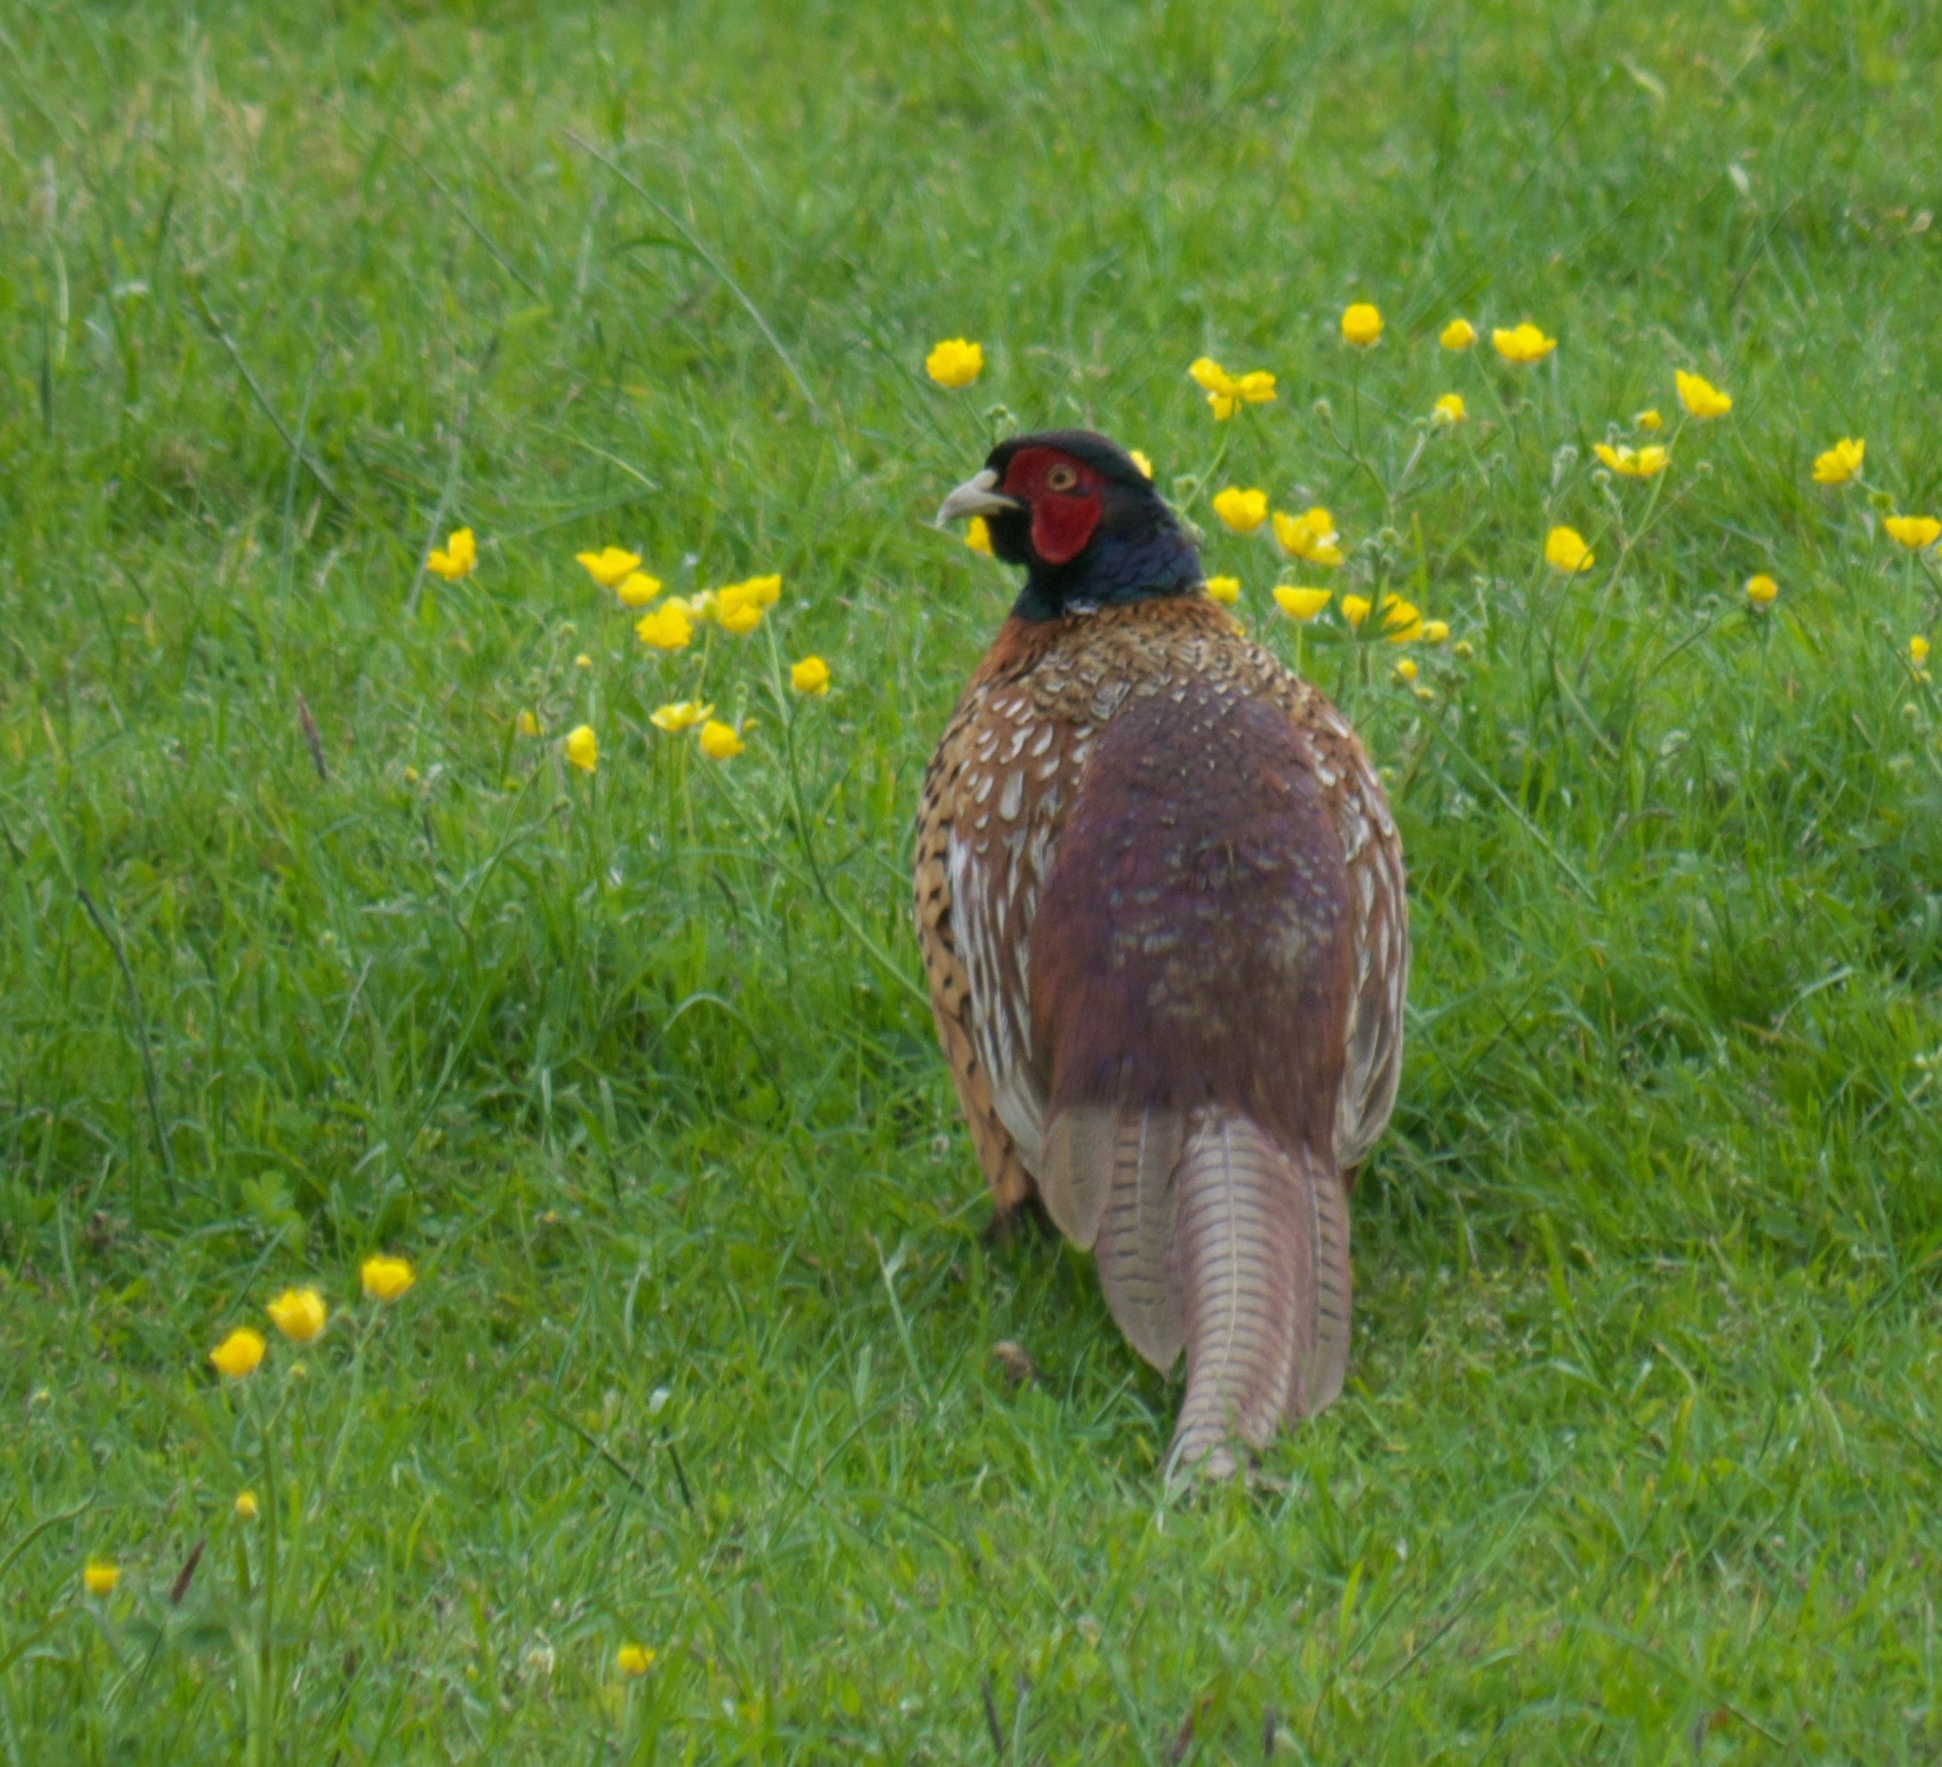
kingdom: Animalia
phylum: Chordata
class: Aves
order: Galliformes
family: Phasianidae
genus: Phasianus
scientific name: Phasianus colchicus
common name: Common pheasant
